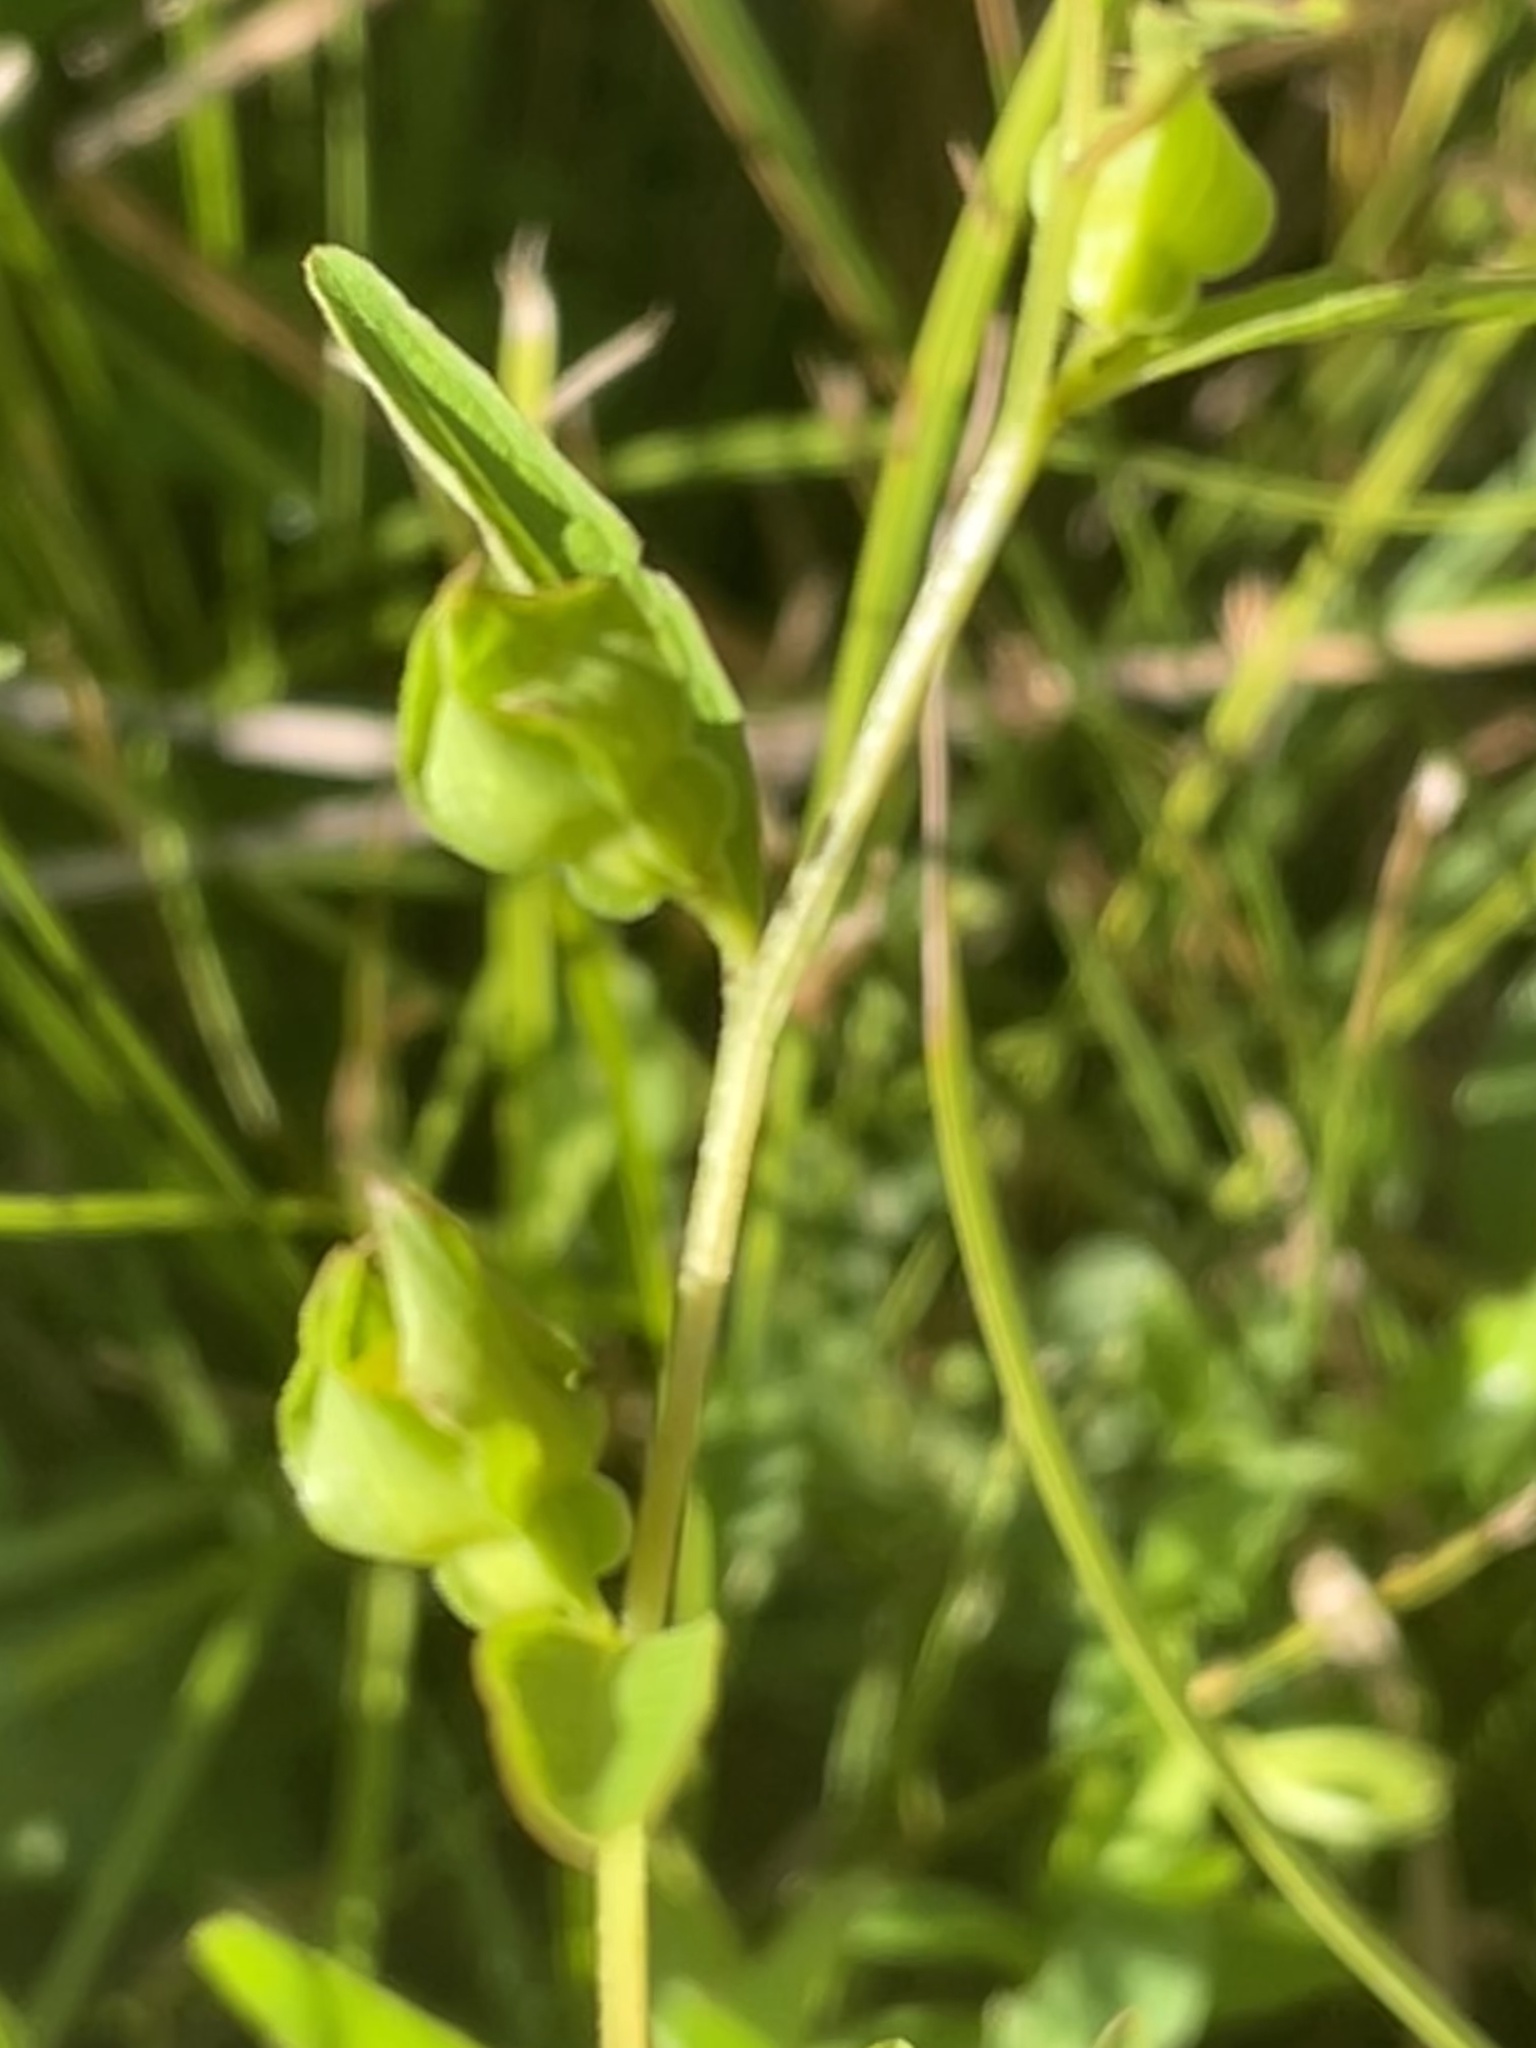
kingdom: Plantae
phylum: Tracheophyta
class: Magnoliopsida
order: Myrtales
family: Onagraceae
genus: Ludwigia
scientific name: Ludwigia alternifolia
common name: Rattlebox
